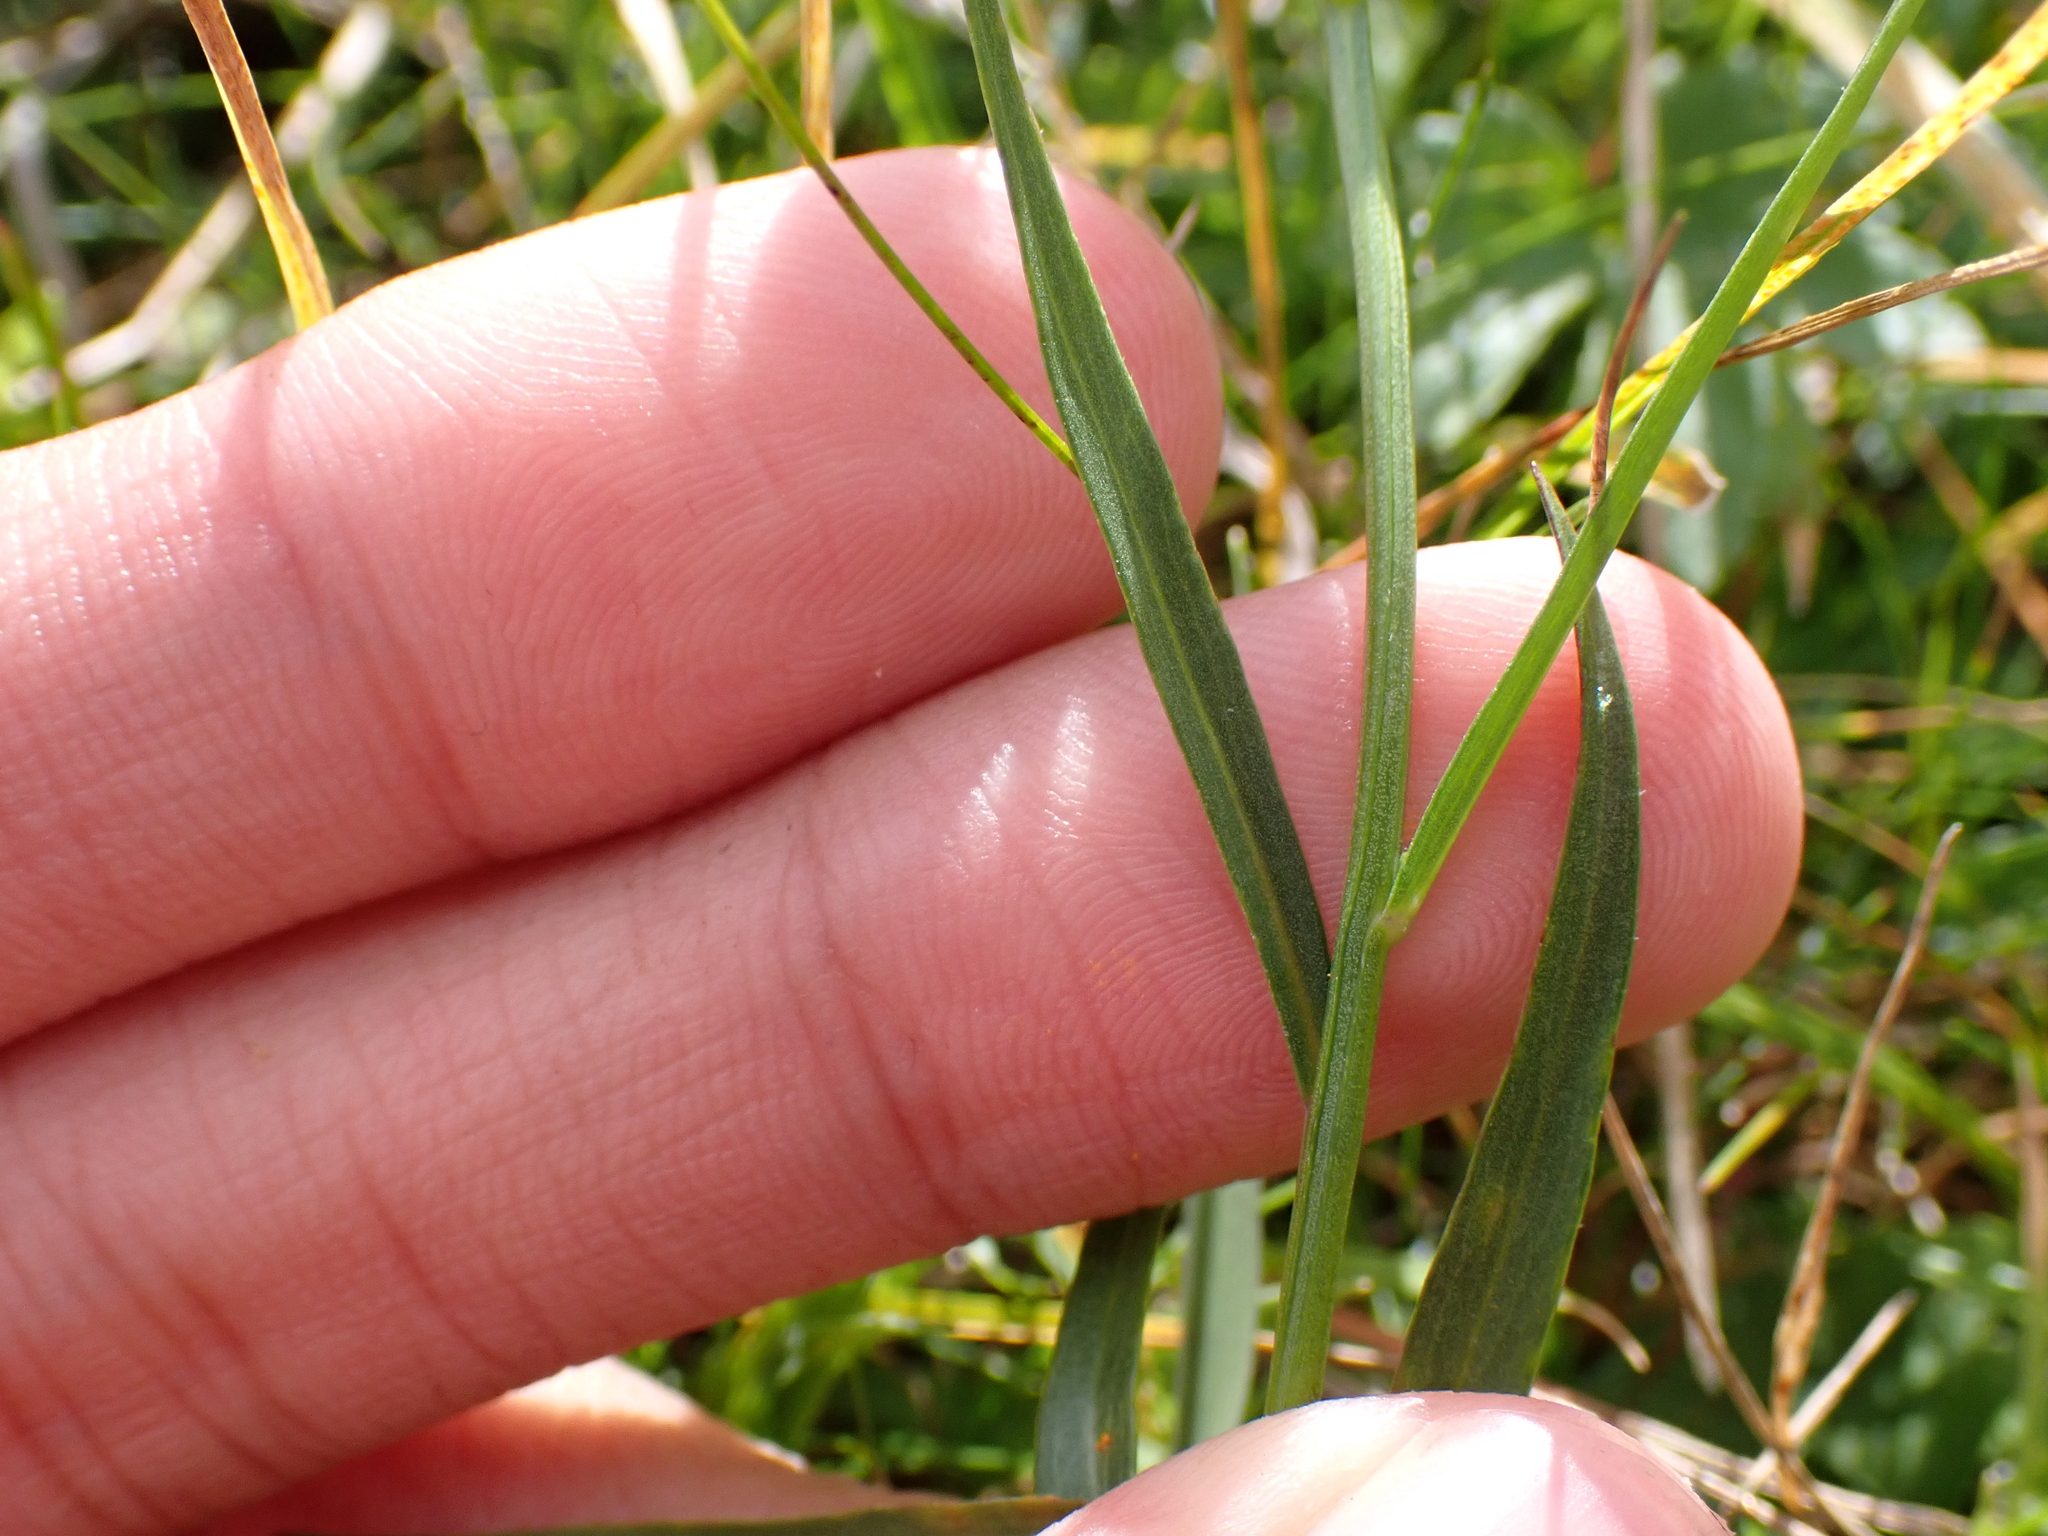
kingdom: Plantae
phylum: Tracheophyta
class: Magnoliopsida
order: Asterales
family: Campanulaceae
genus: Campanula
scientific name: Campanula scheuchzeri
